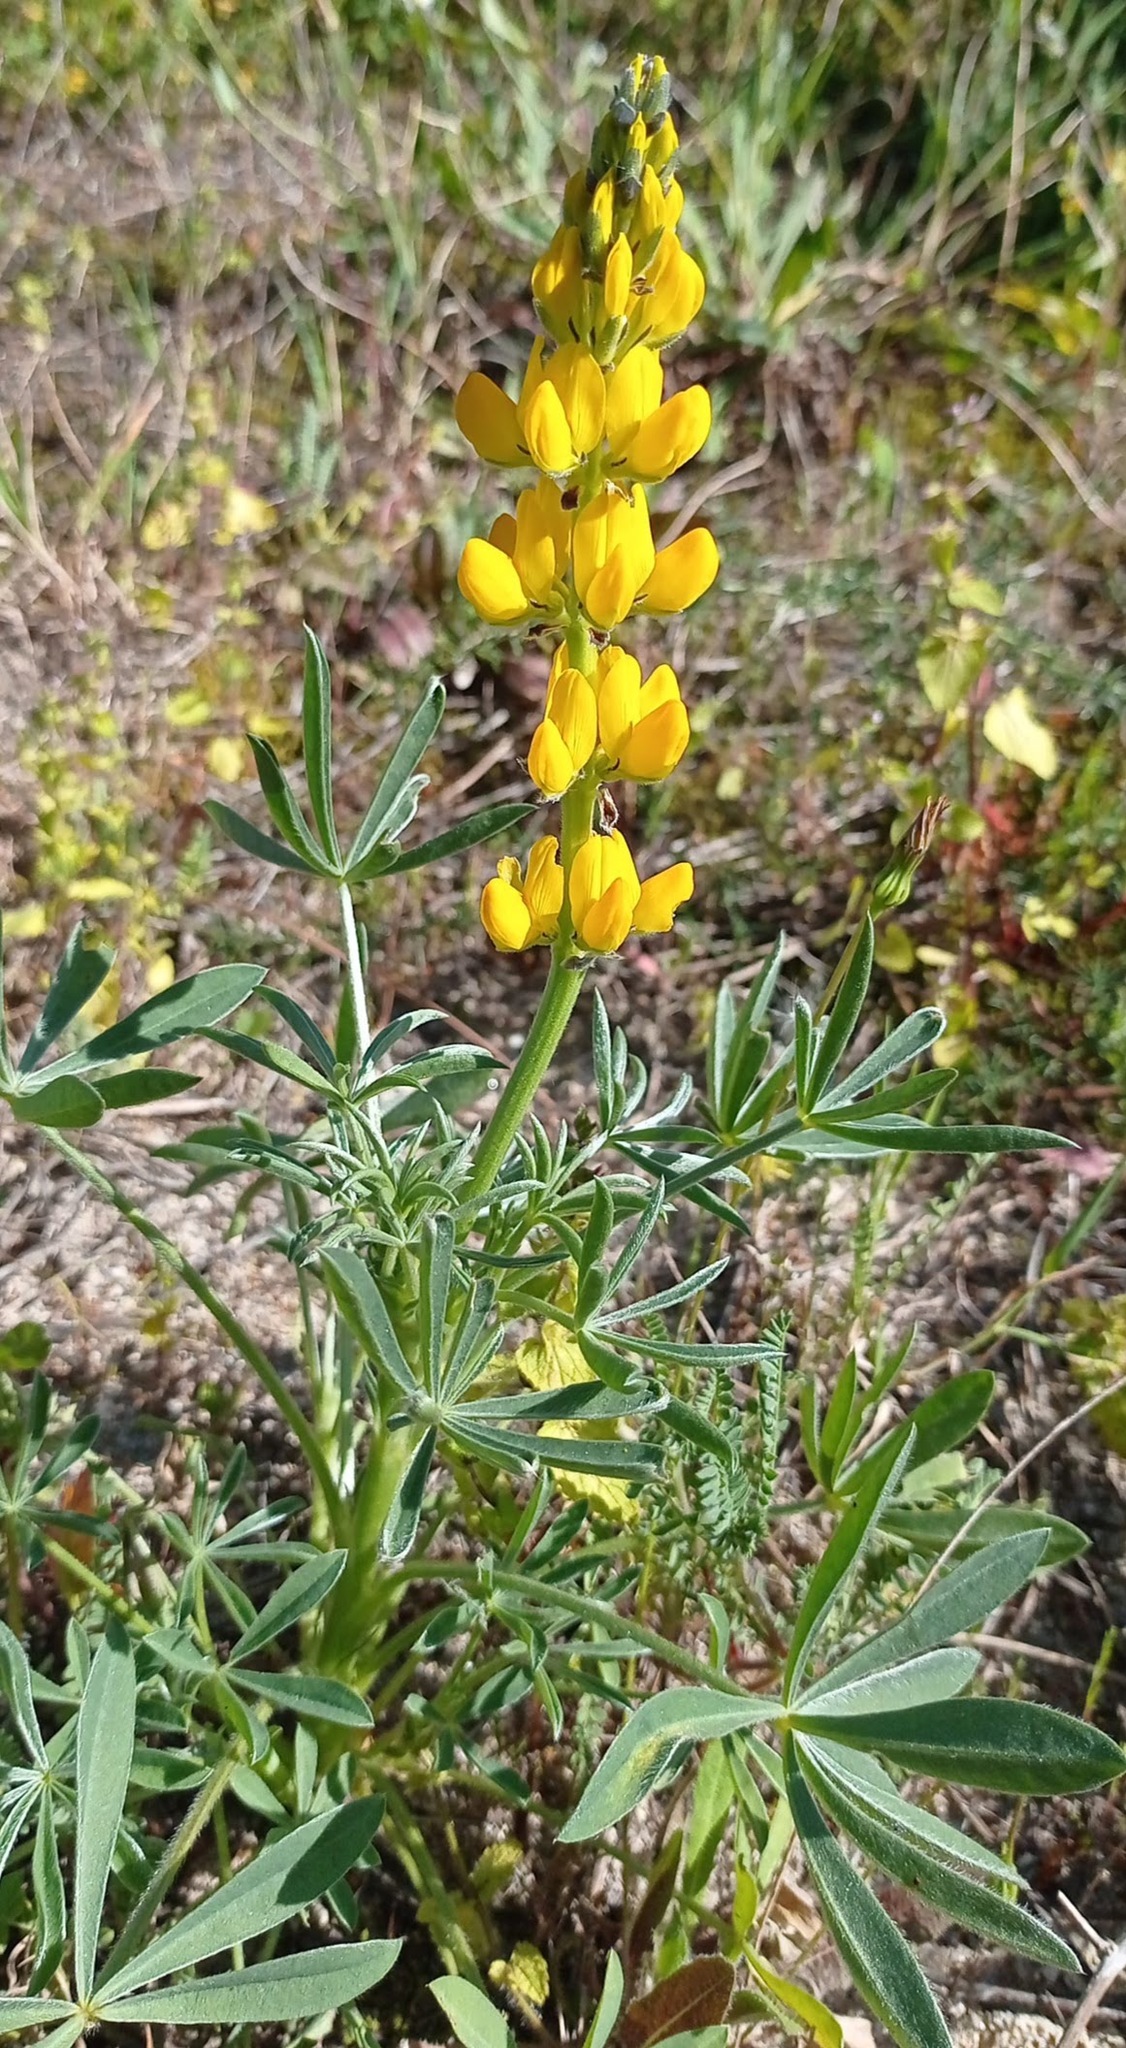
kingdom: Plantae
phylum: Tracheophyta
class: Magnoliopsida
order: Fabales
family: Fabaceae
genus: Lupinus
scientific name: Lupinus luteus
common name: European yellow lupine
